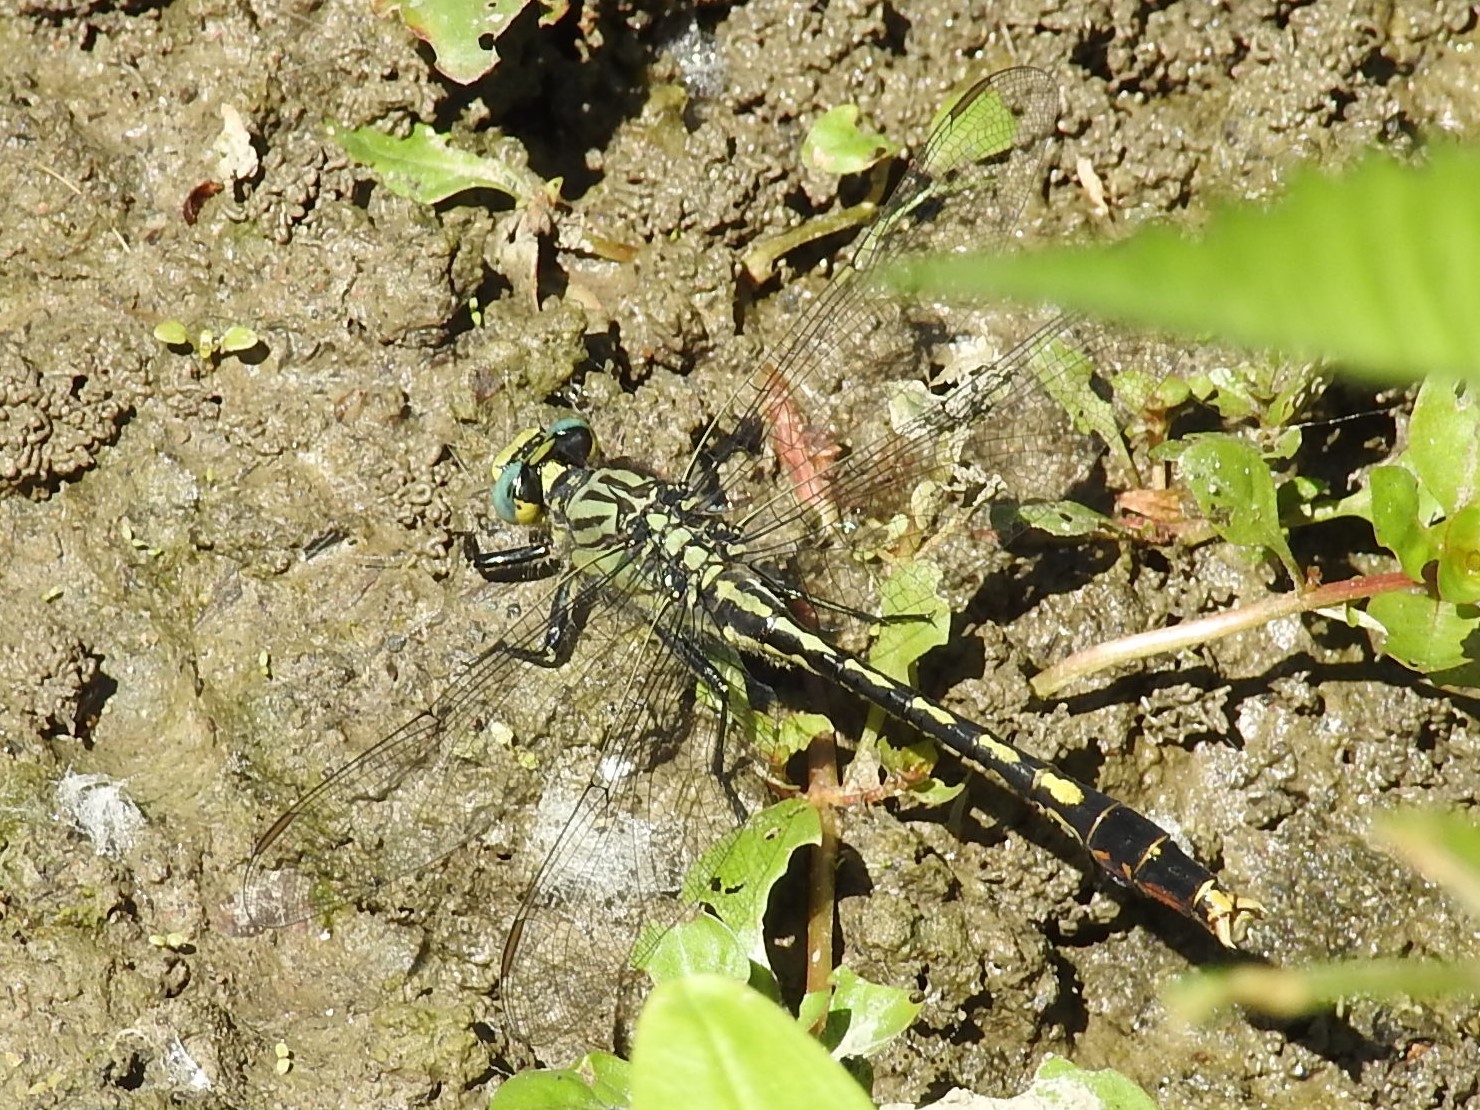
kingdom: Animalia
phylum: Arthropoda
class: Insecta
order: Odonata
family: Gomphidae
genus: Arigomphus
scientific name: Arigomphus villosipes
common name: Unicorn clubtail
